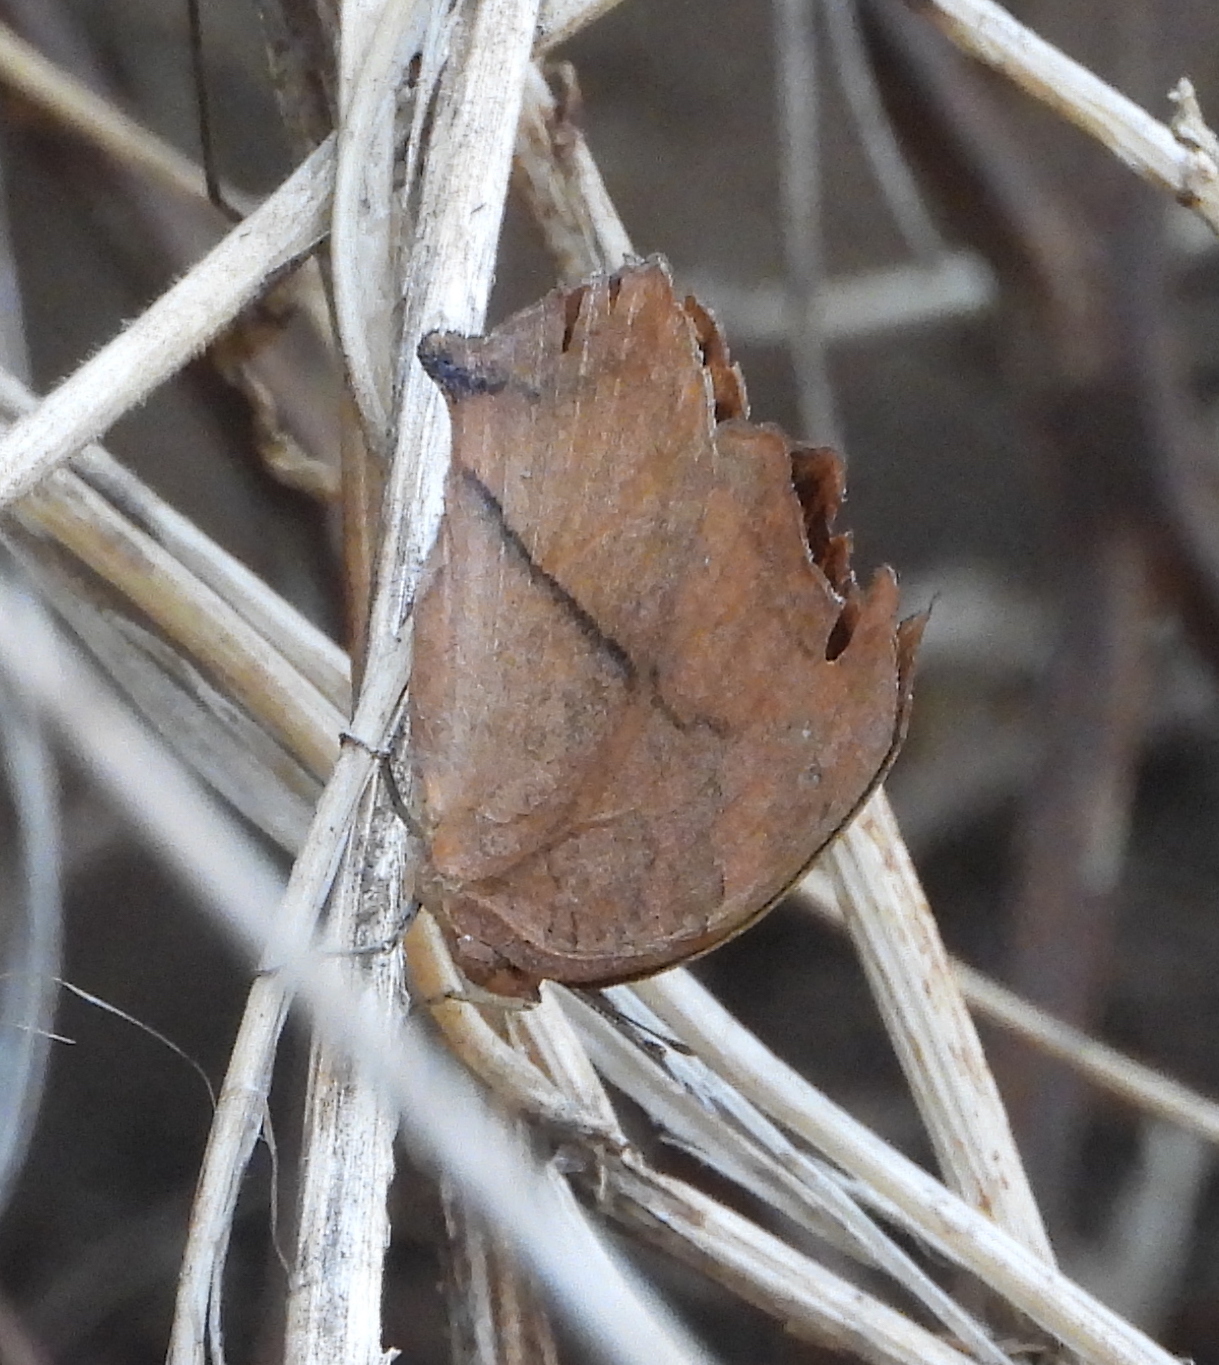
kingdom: Animalia
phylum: Arthropoda
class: Insecta
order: Lepidoptera
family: Nymphalidae
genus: Junonia
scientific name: Junonia antilope
